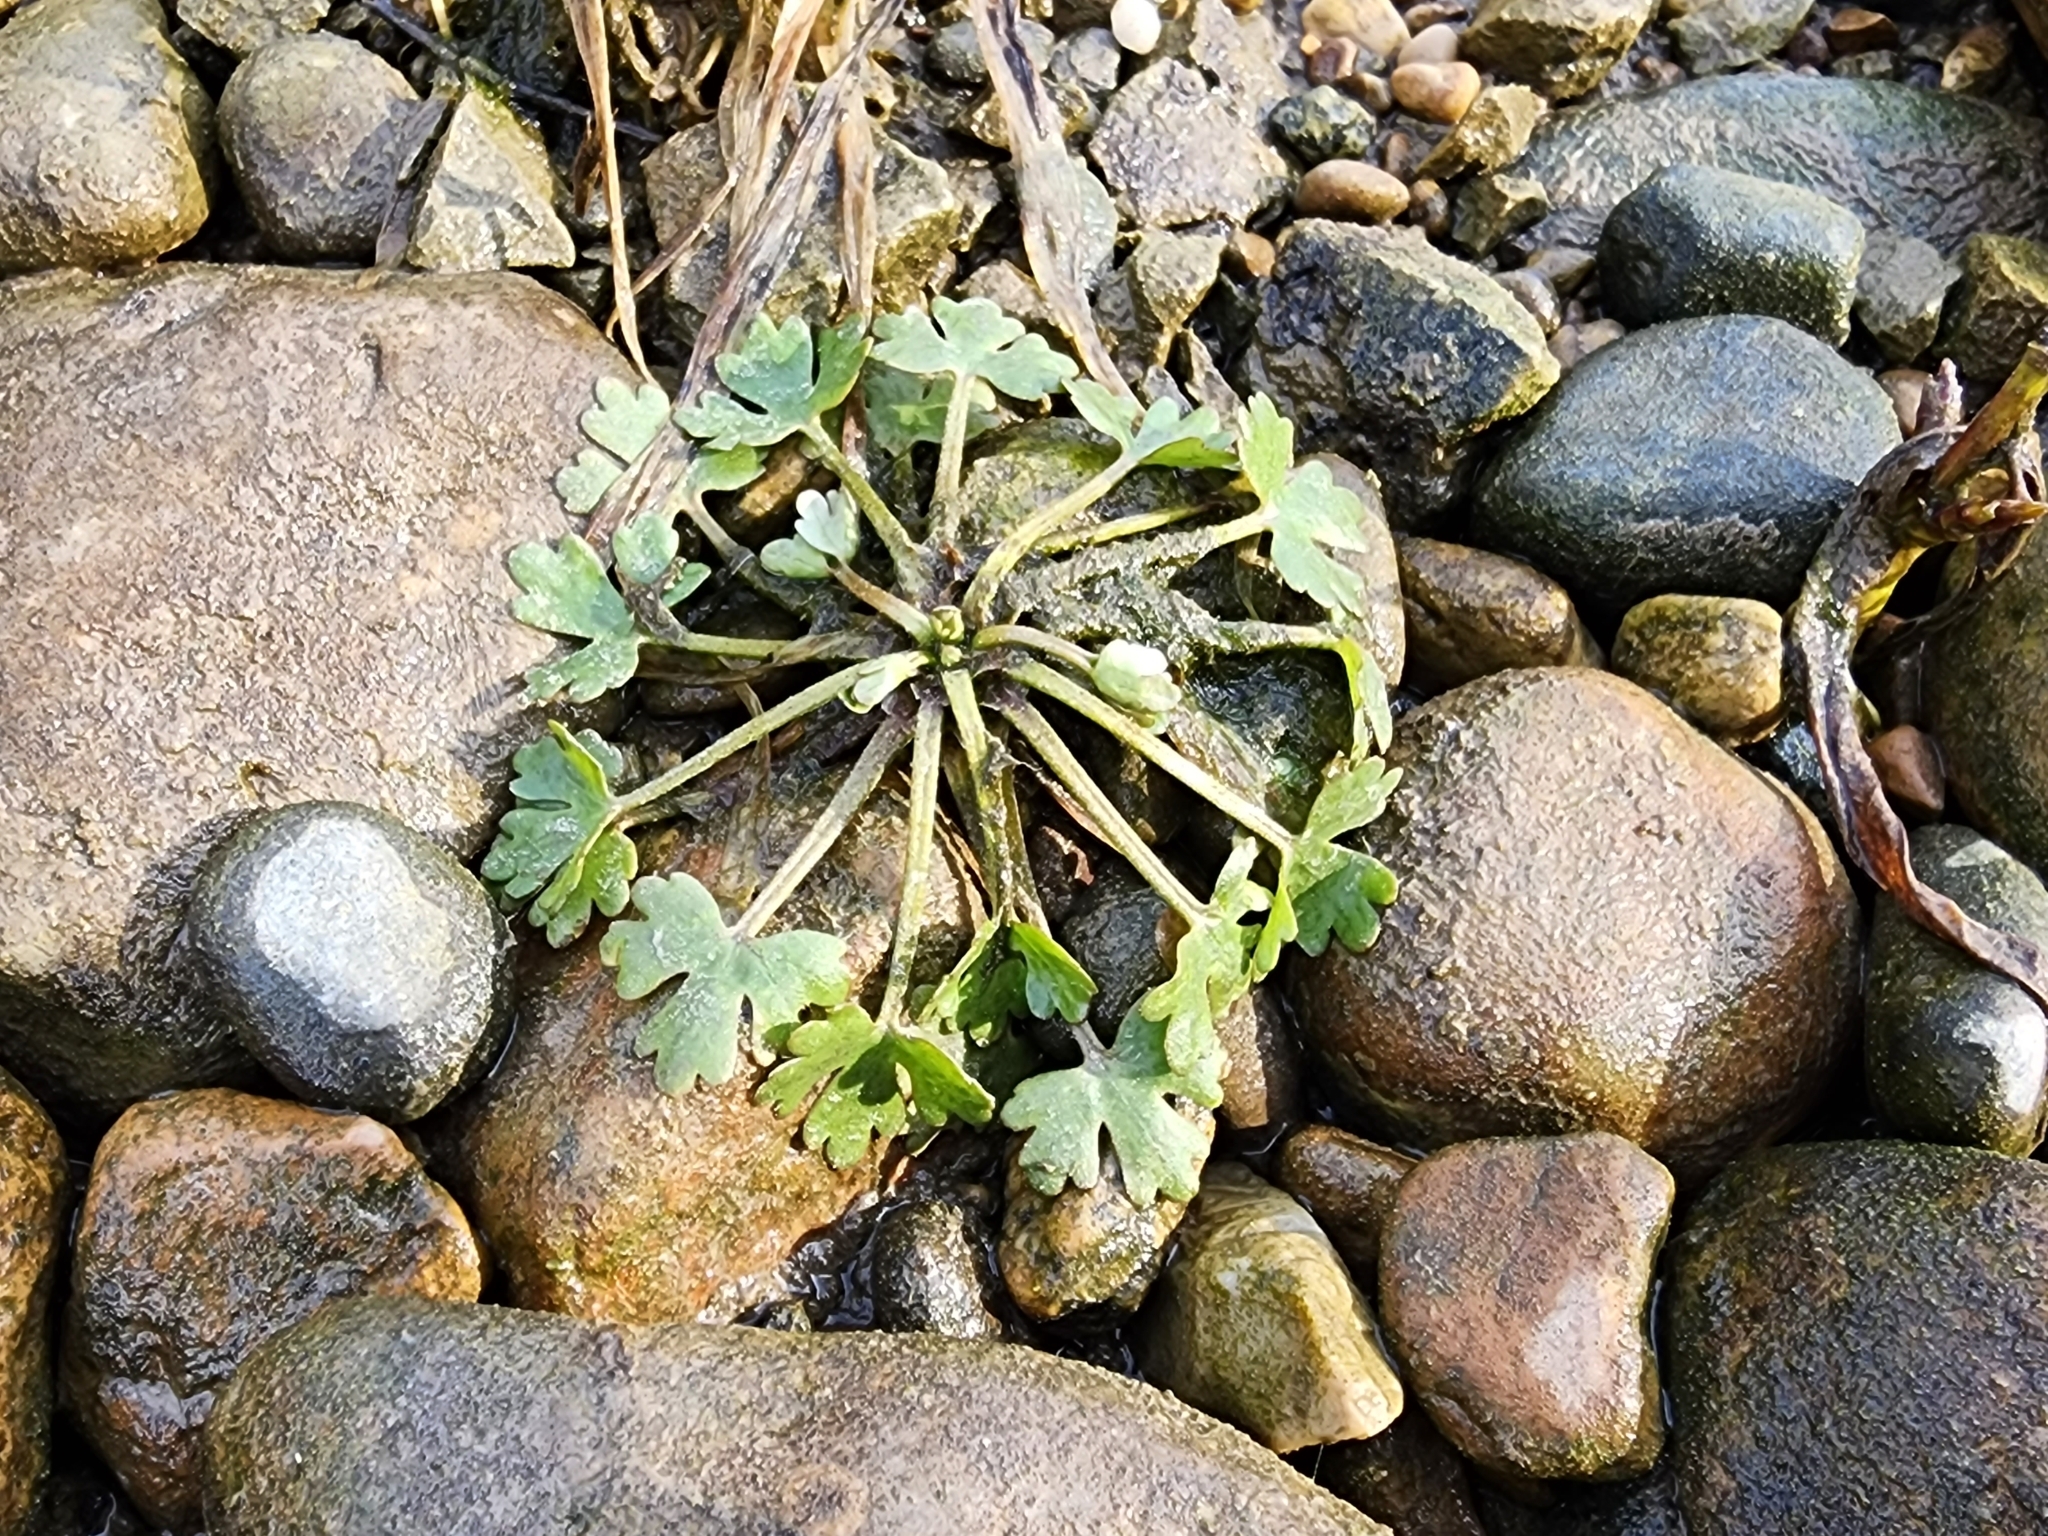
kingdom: Plantae
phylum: Tracheophyta
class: Magnoliopsida
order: Ranunculales
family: Ranunculaceae
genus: Ranunculus
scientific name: Ranunculus sceleratus
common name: Celery-leaved buttercup
